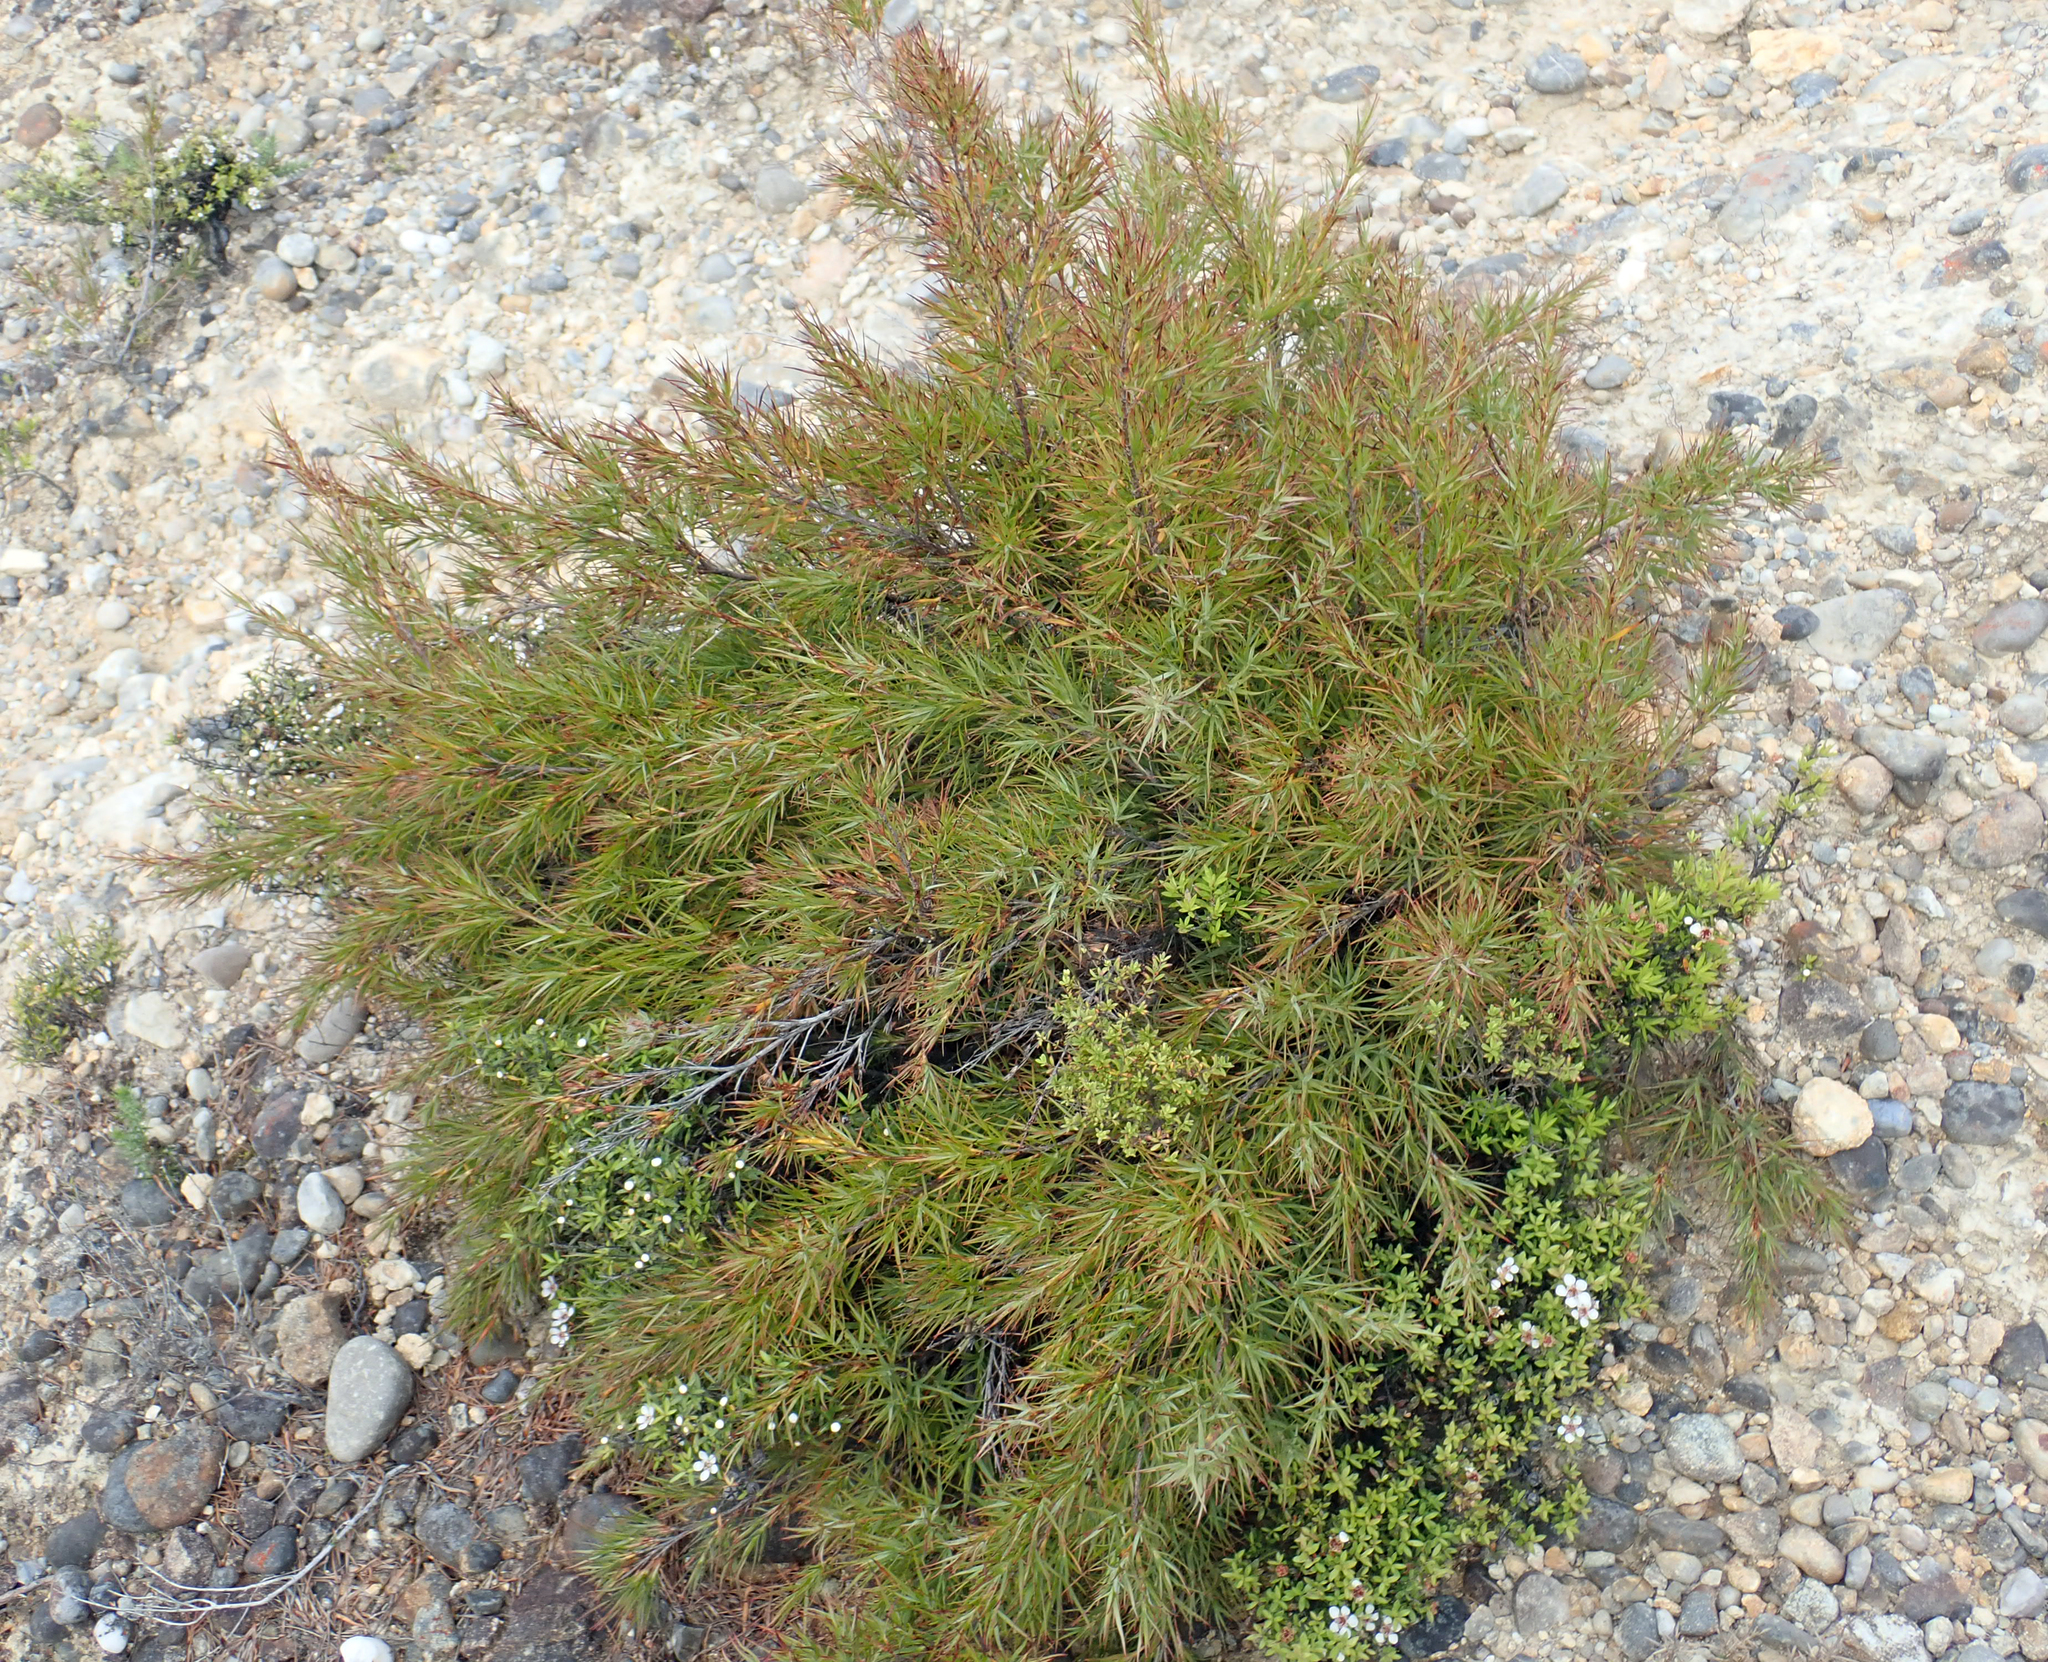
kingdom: Plantae
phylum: Tracheophyta
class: Magnoliopsida
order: Ericales
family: Ericaceae
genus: Dracophyllum
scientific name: Dracophyllum trimorphum
